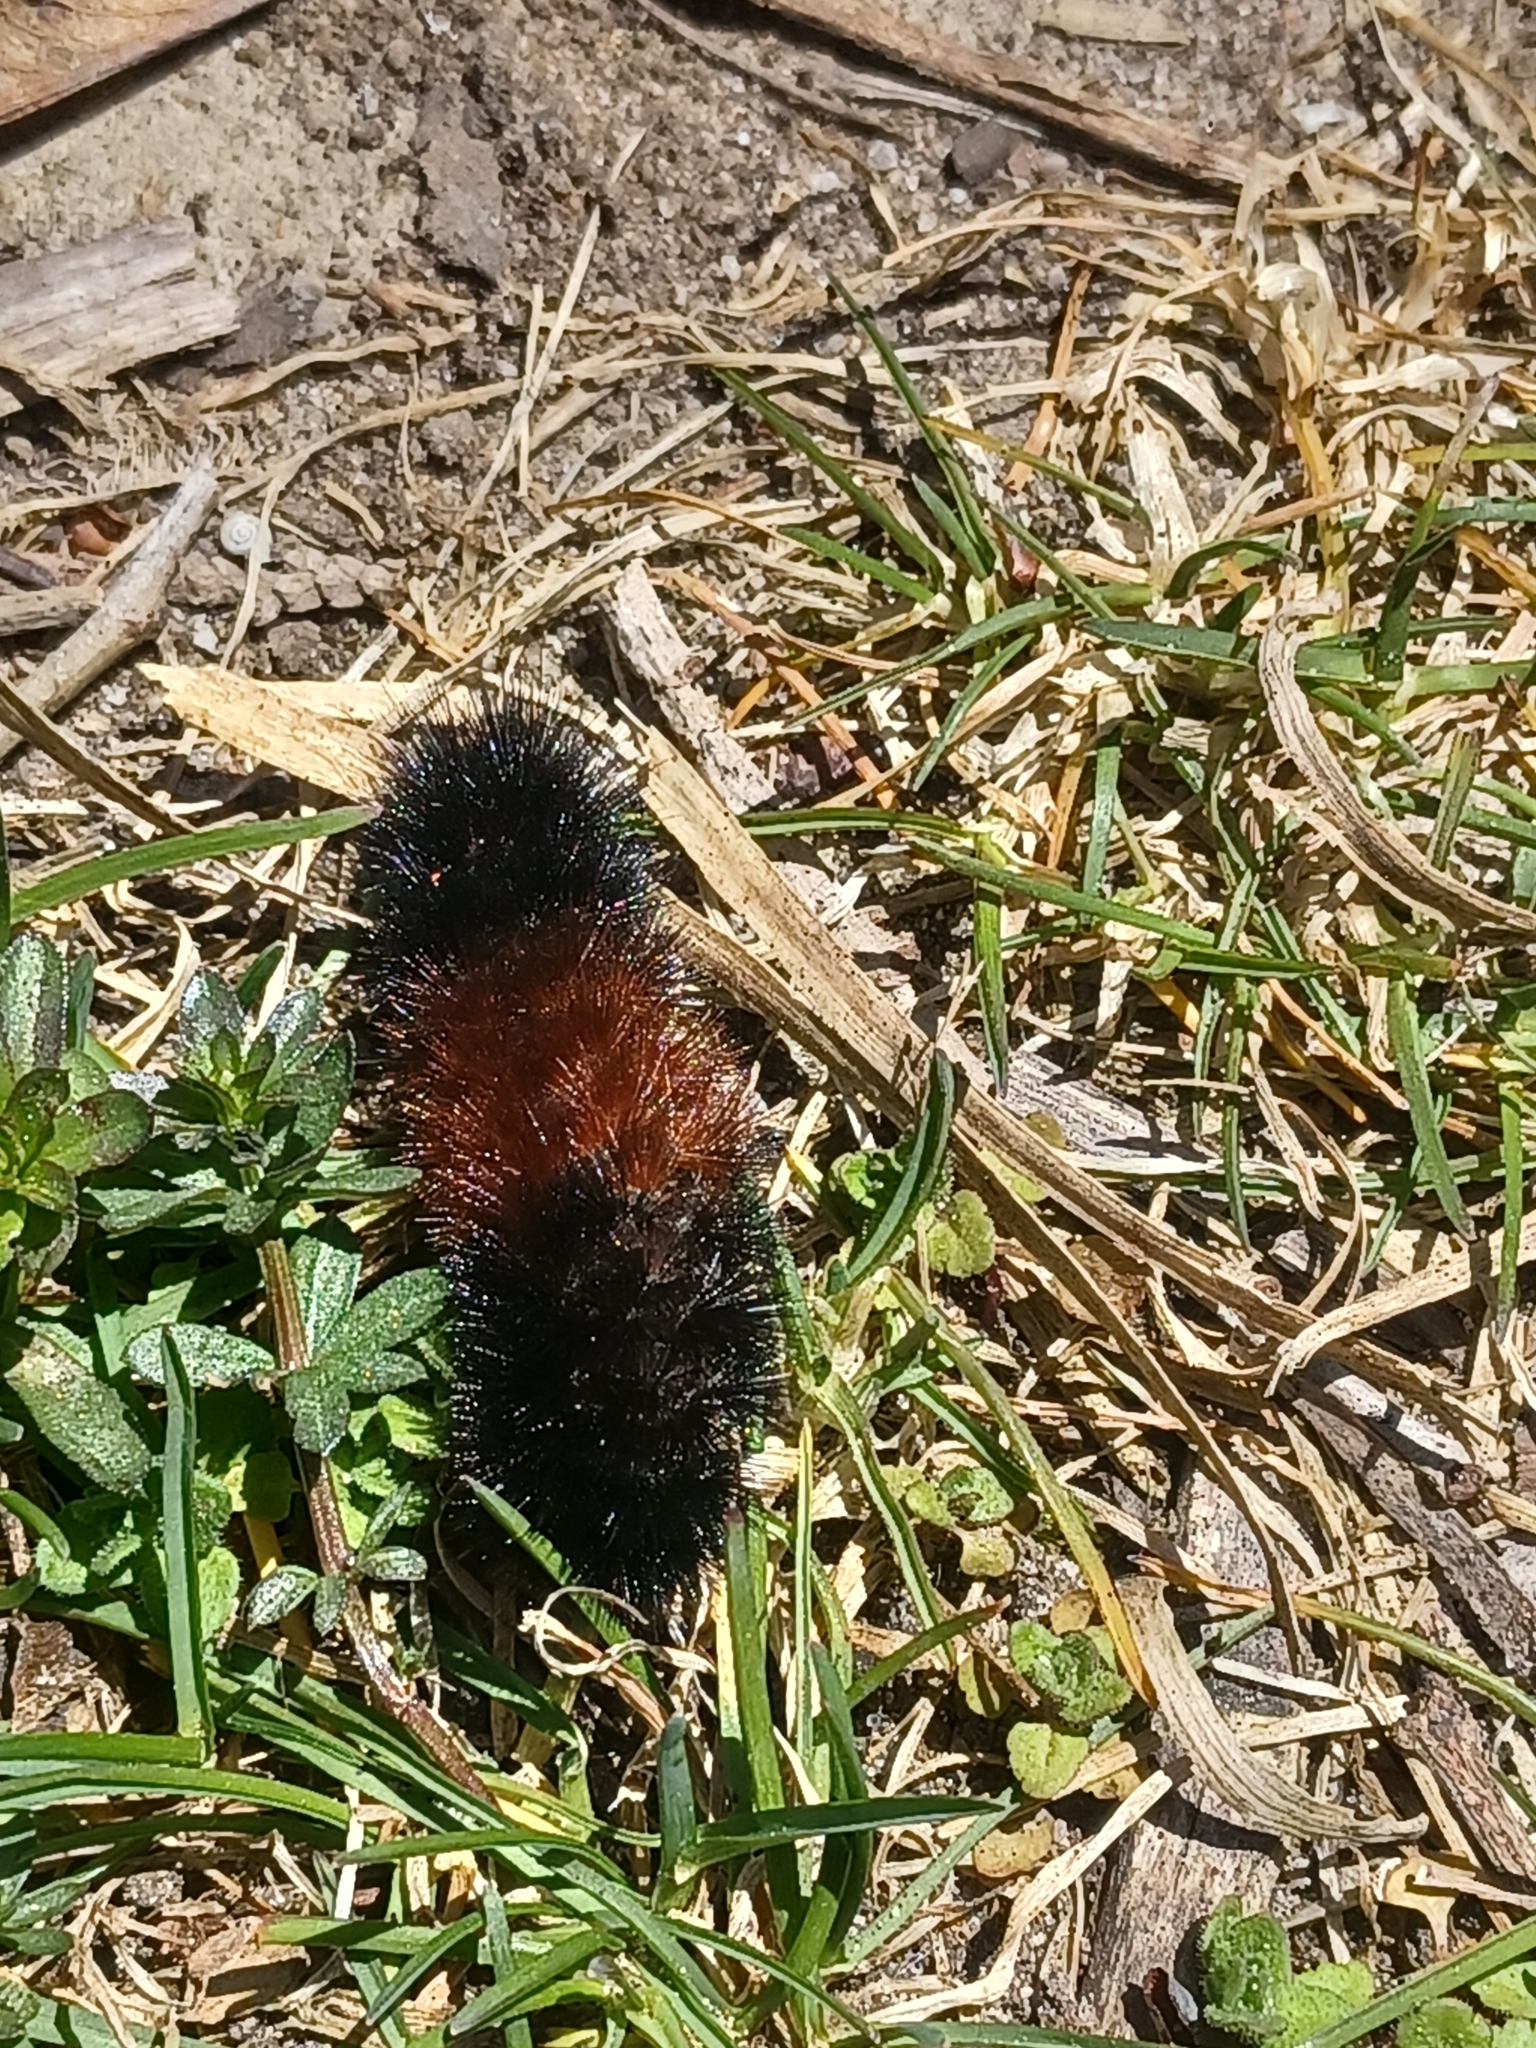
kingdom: Animalia
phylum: Arthropoda
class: Insecta
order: Lepidoptera
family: Erebidae
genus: Pyrrharctia
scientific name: Pyrrharctia isabella
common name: Isabella tiger moth
